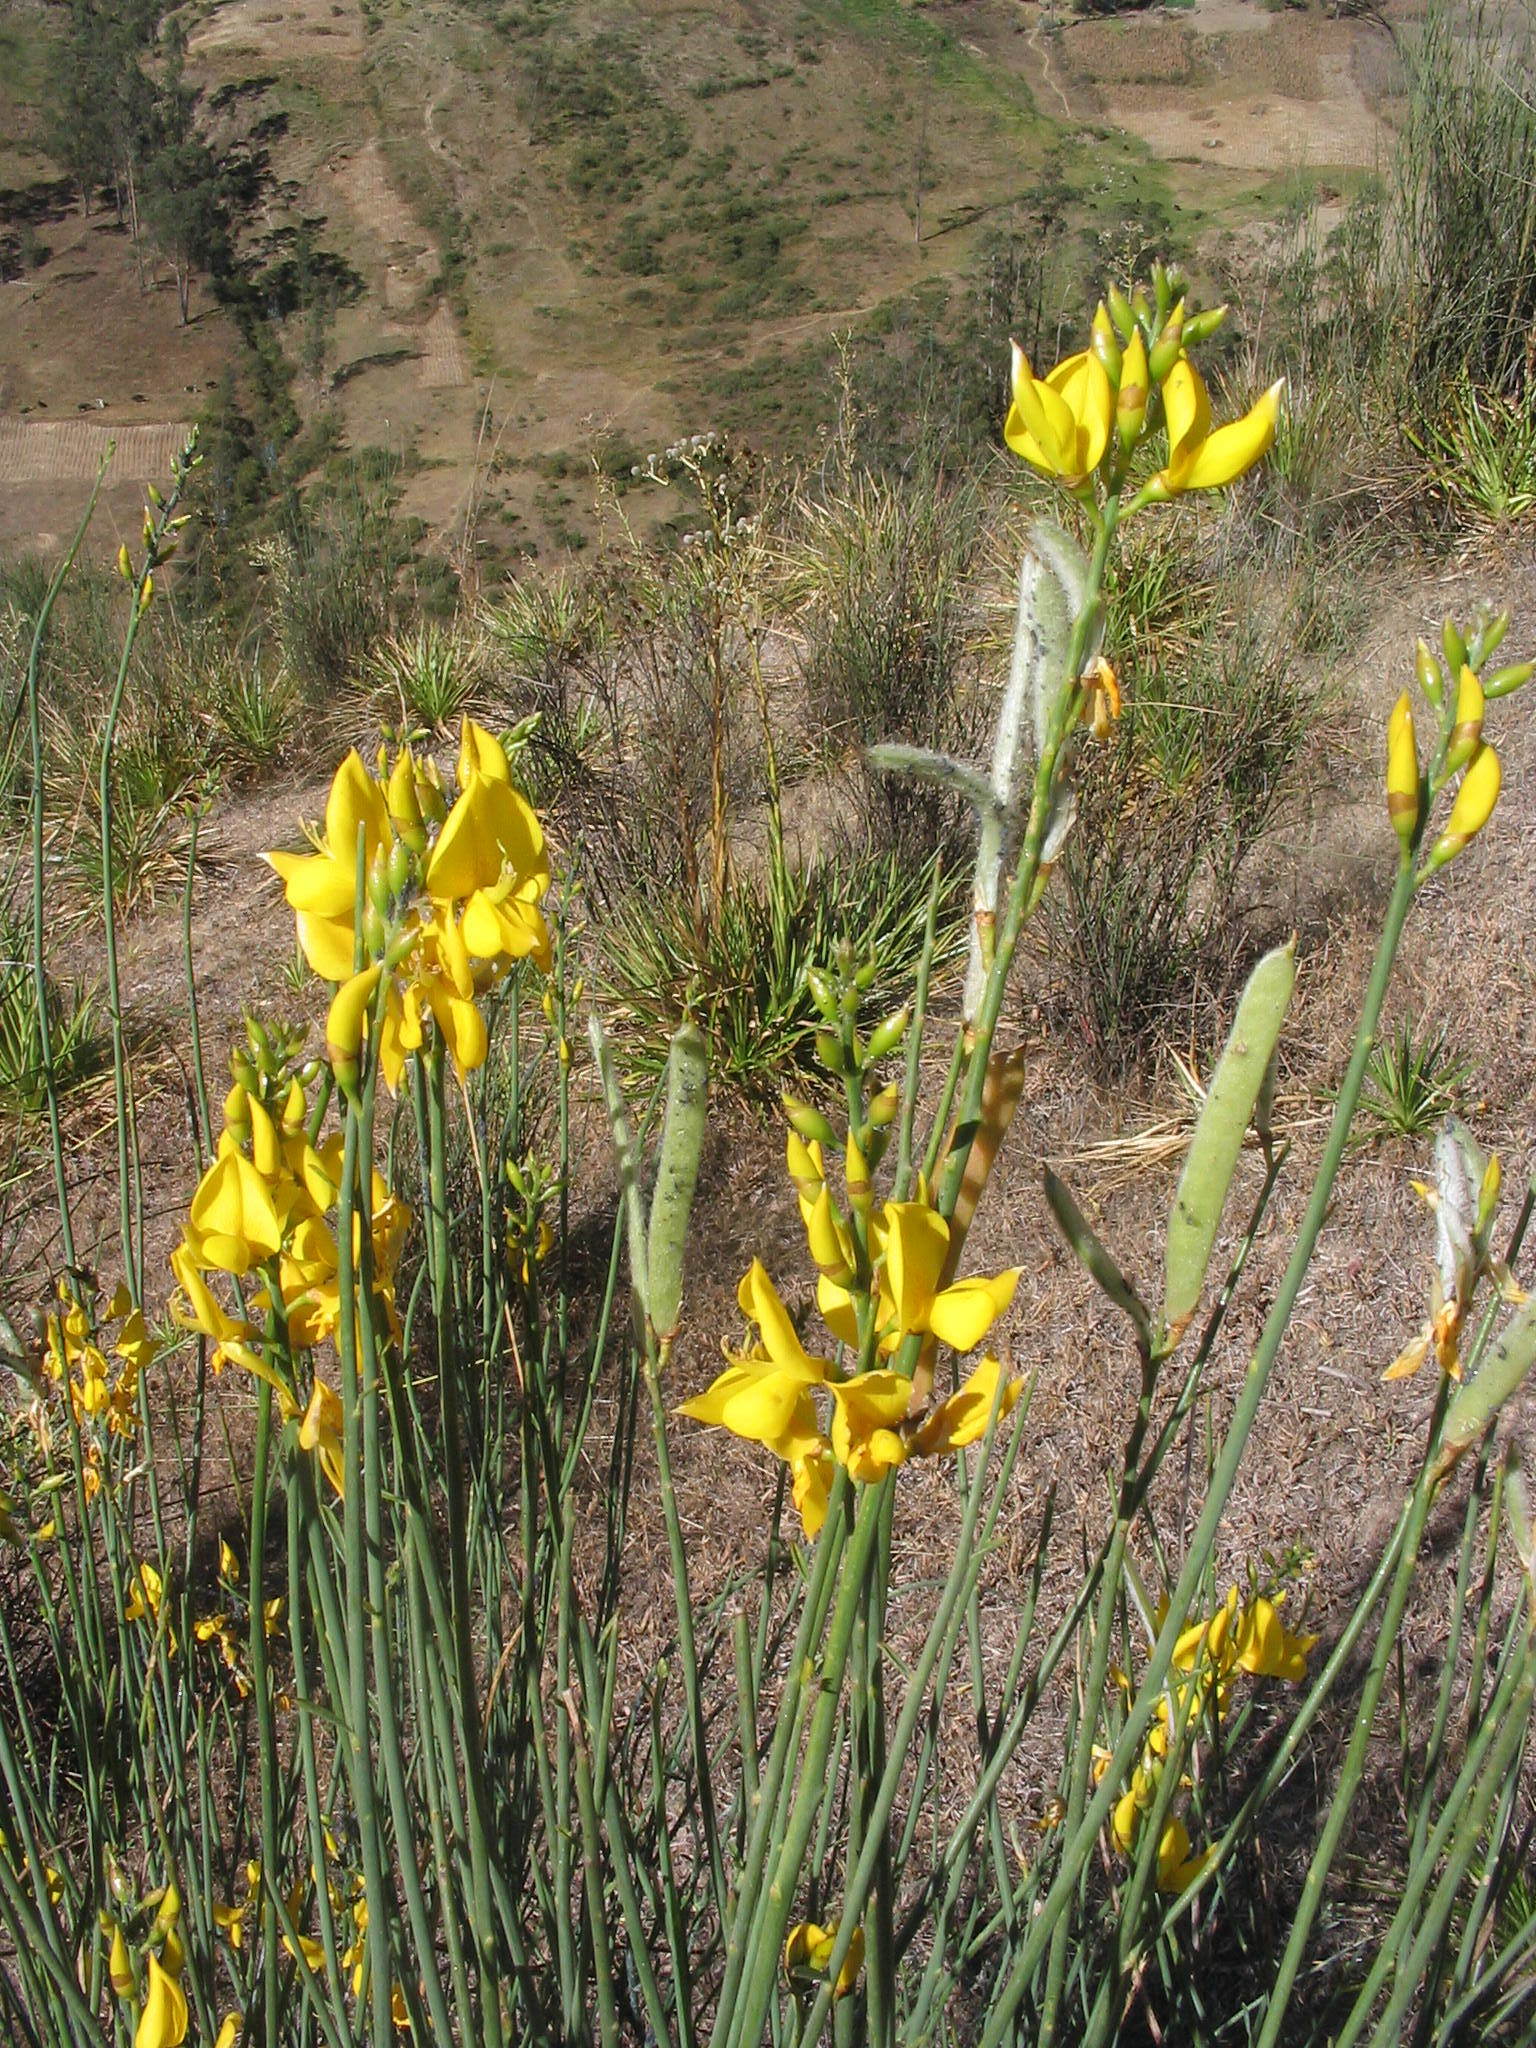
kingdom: Plantae
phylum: Tracheophyta
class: Magnoliopsida
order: Fabales
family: Fabaceae
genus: Spartium
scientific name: Spartium junceum
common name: Spanish broom
